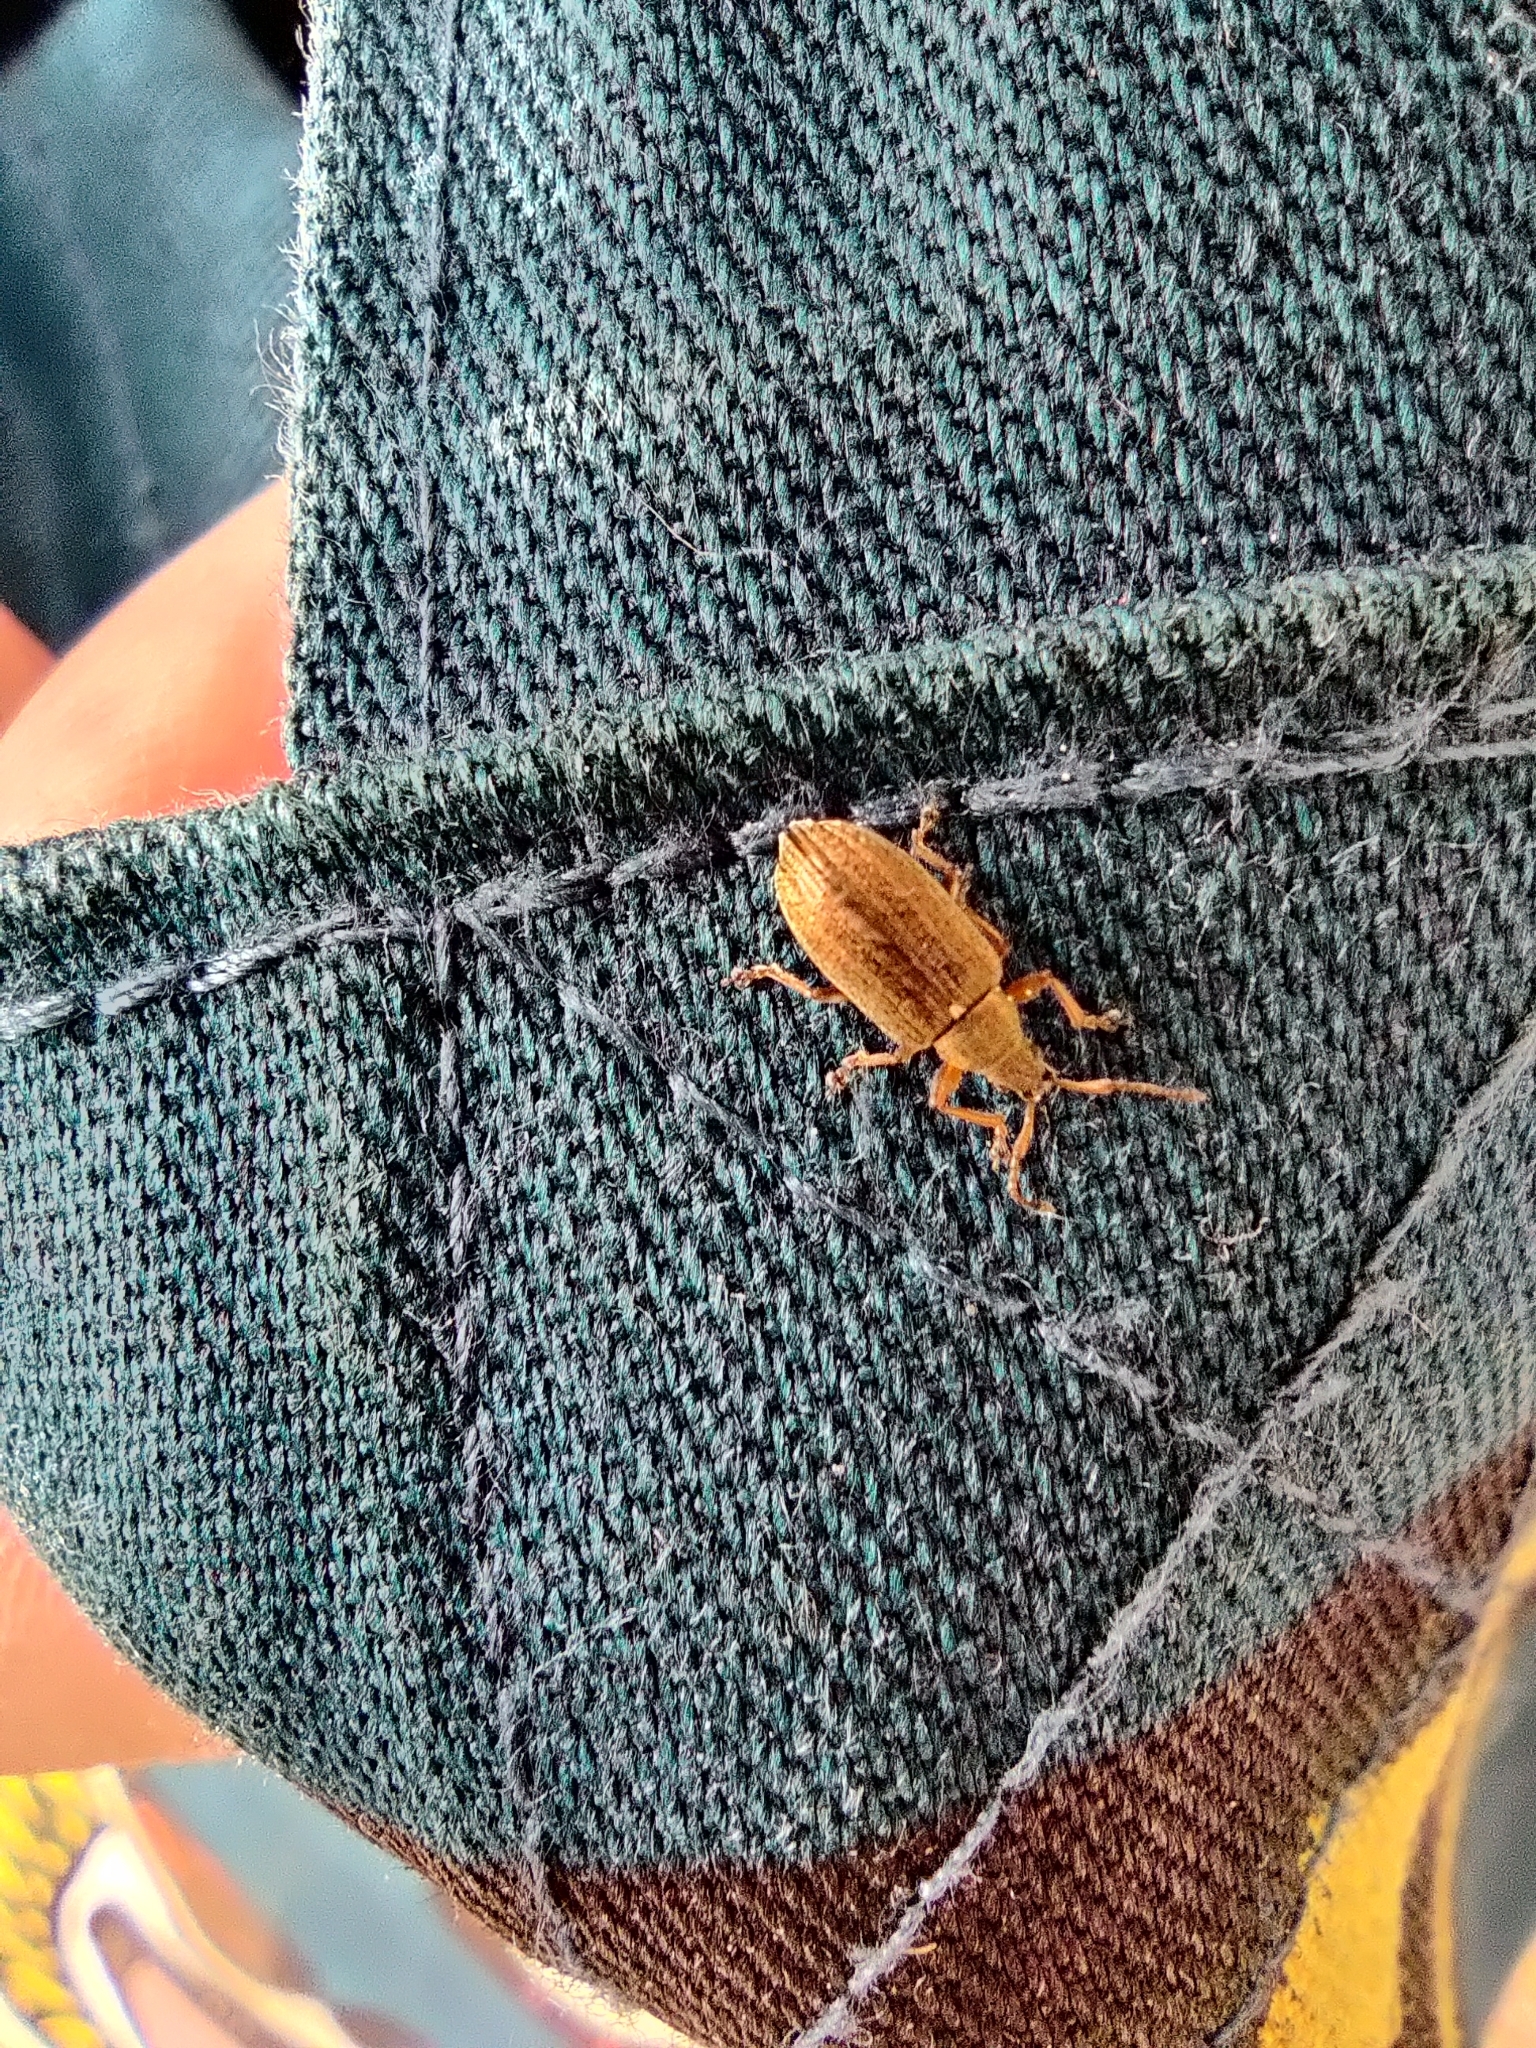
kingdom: Animalia
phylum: Arthropoda
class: Insecta
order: Coleoptera
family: Curculionidae
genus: Phyllobius
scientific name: Phyllobius pyri
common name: Common leaf weevil
